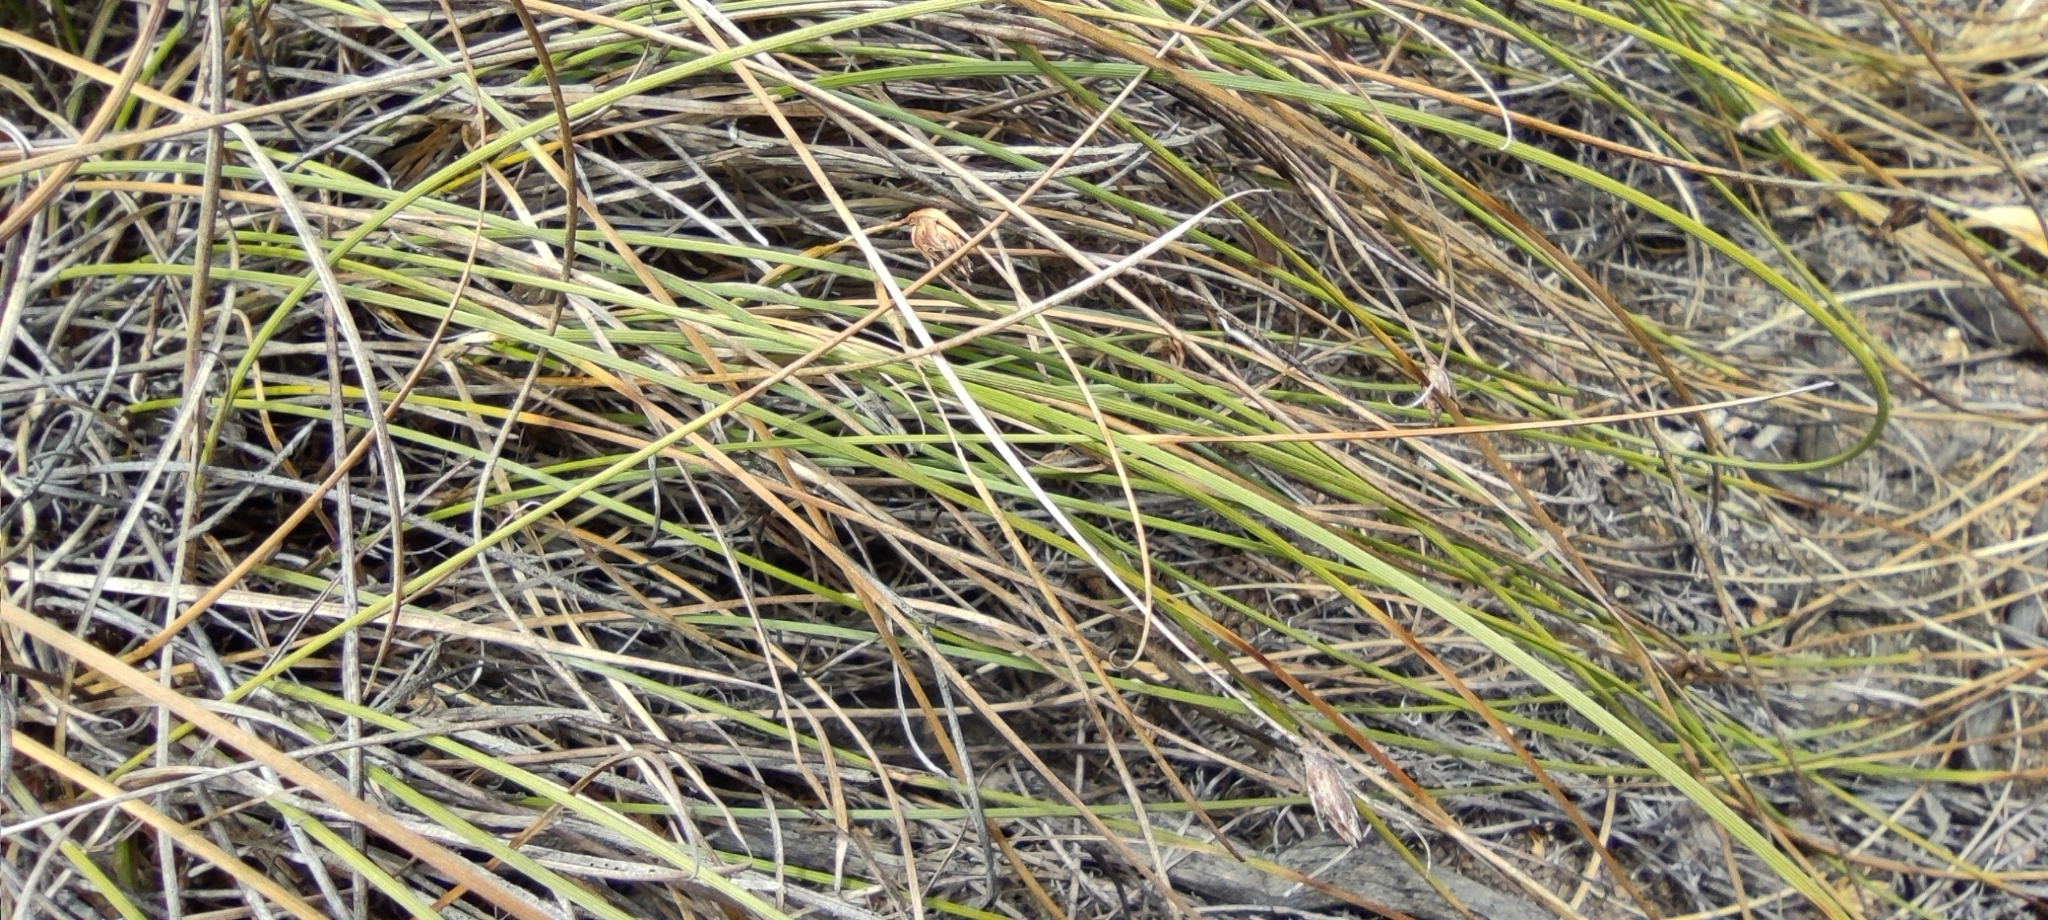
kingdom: Plantae
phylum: Tracheophyta
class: Liliopsida
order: Poales
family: Cyperaceae
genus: Carex
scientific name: Carex setifolia
